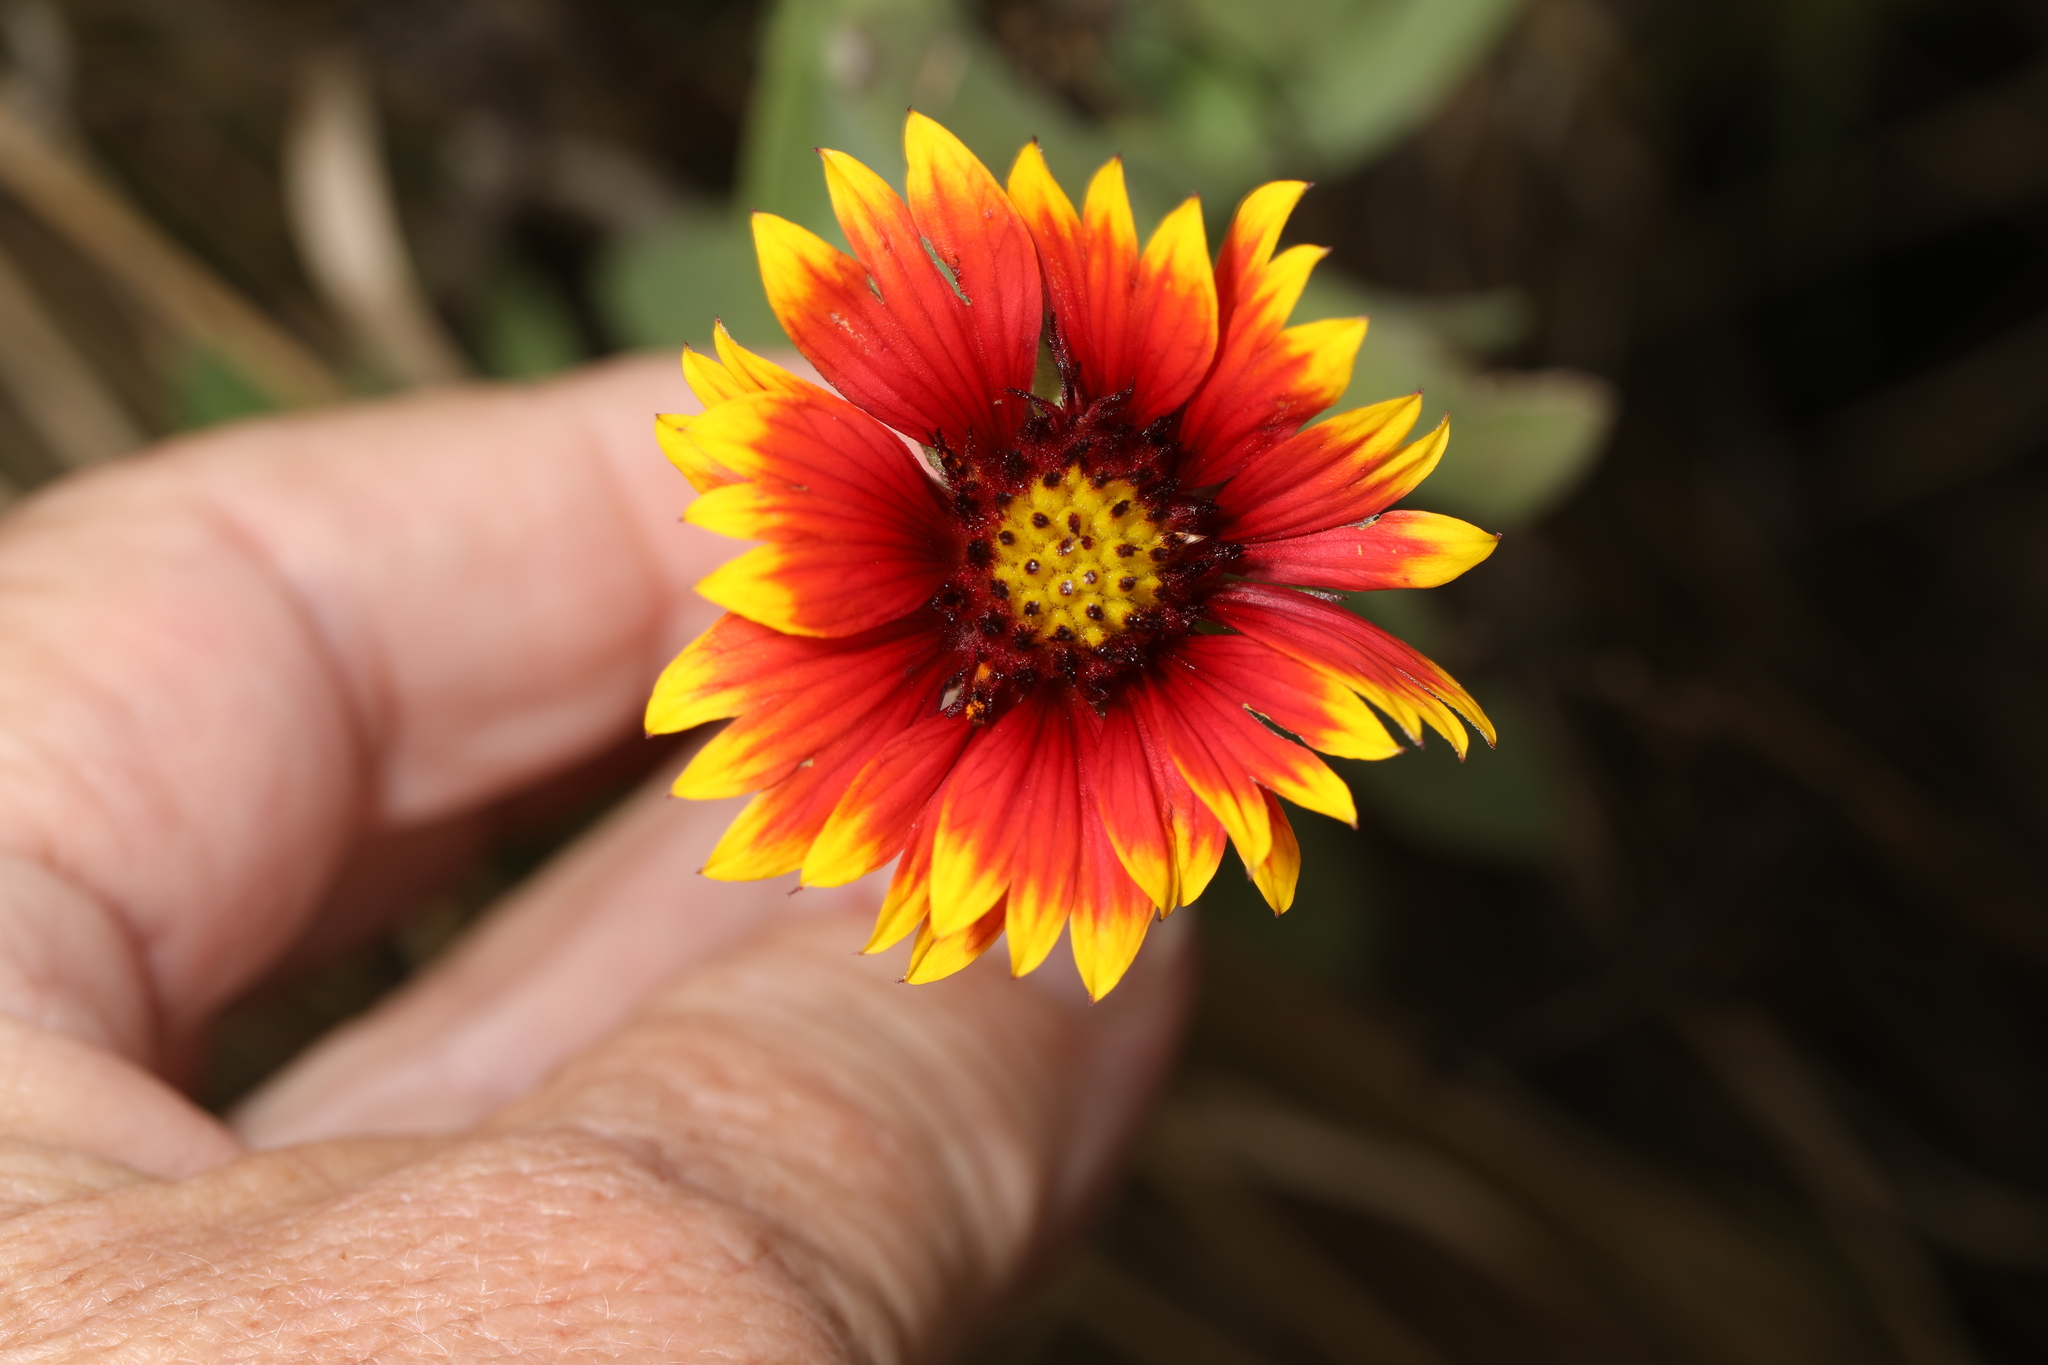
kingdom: Plantae
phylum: Tracheophyta
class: Magnoliopsida
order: Asterales
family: Asteraceae
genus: Gaillardia
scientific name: Gaillardia pulchella
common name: Firewheel
